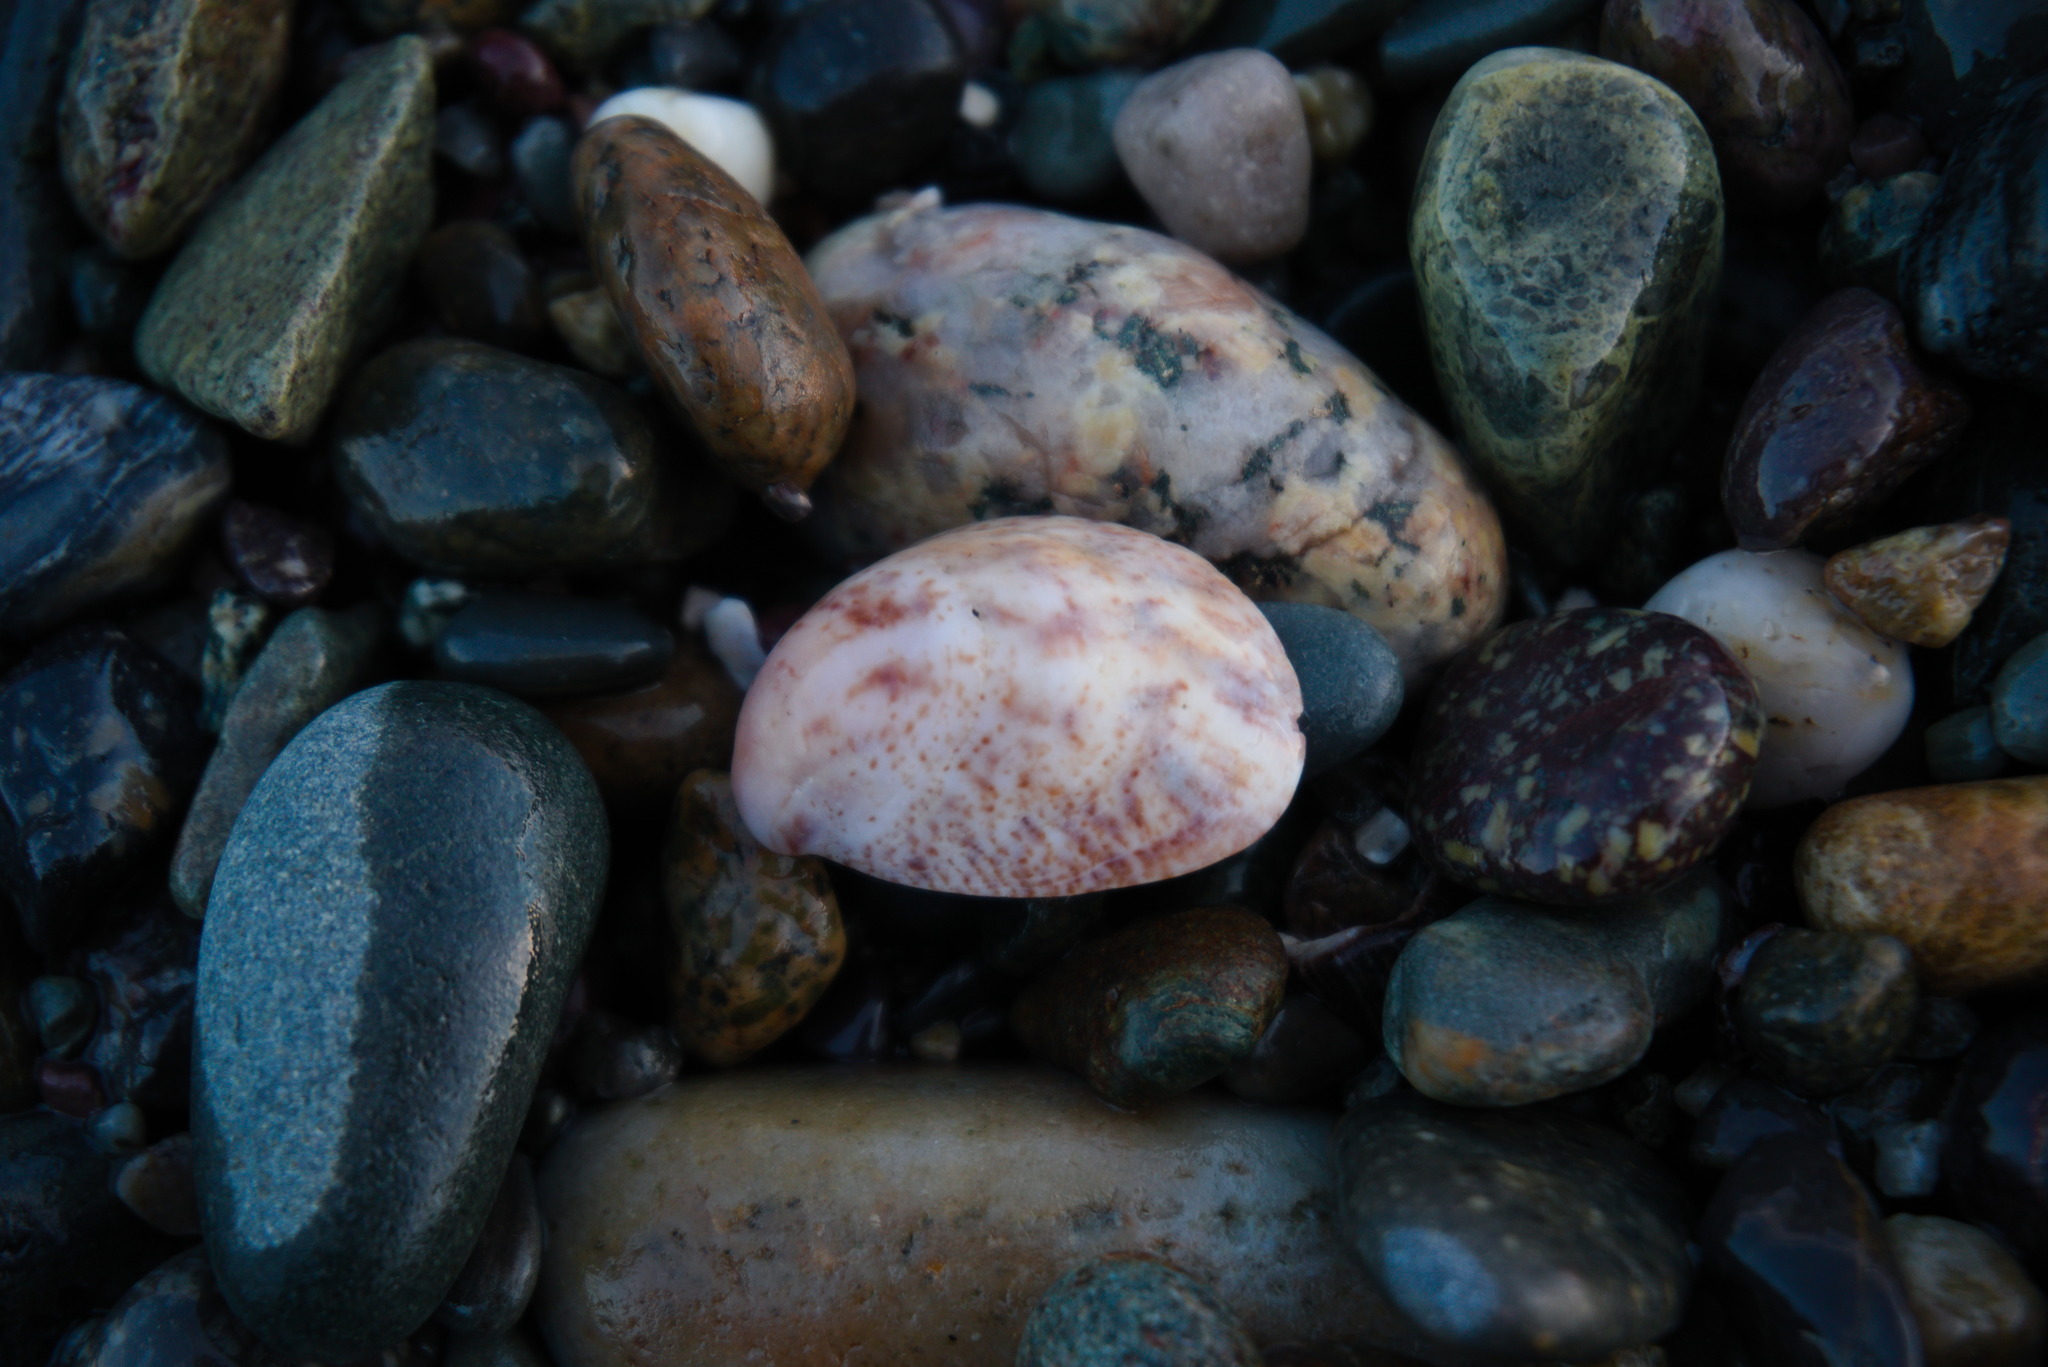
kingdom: Animalia
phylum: Mollusca
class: Gastropoda
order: Littorinimorpha
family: Calyptraeidae
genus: Crepidula
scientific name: Crepidula fornicata
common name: Slipper limpet
